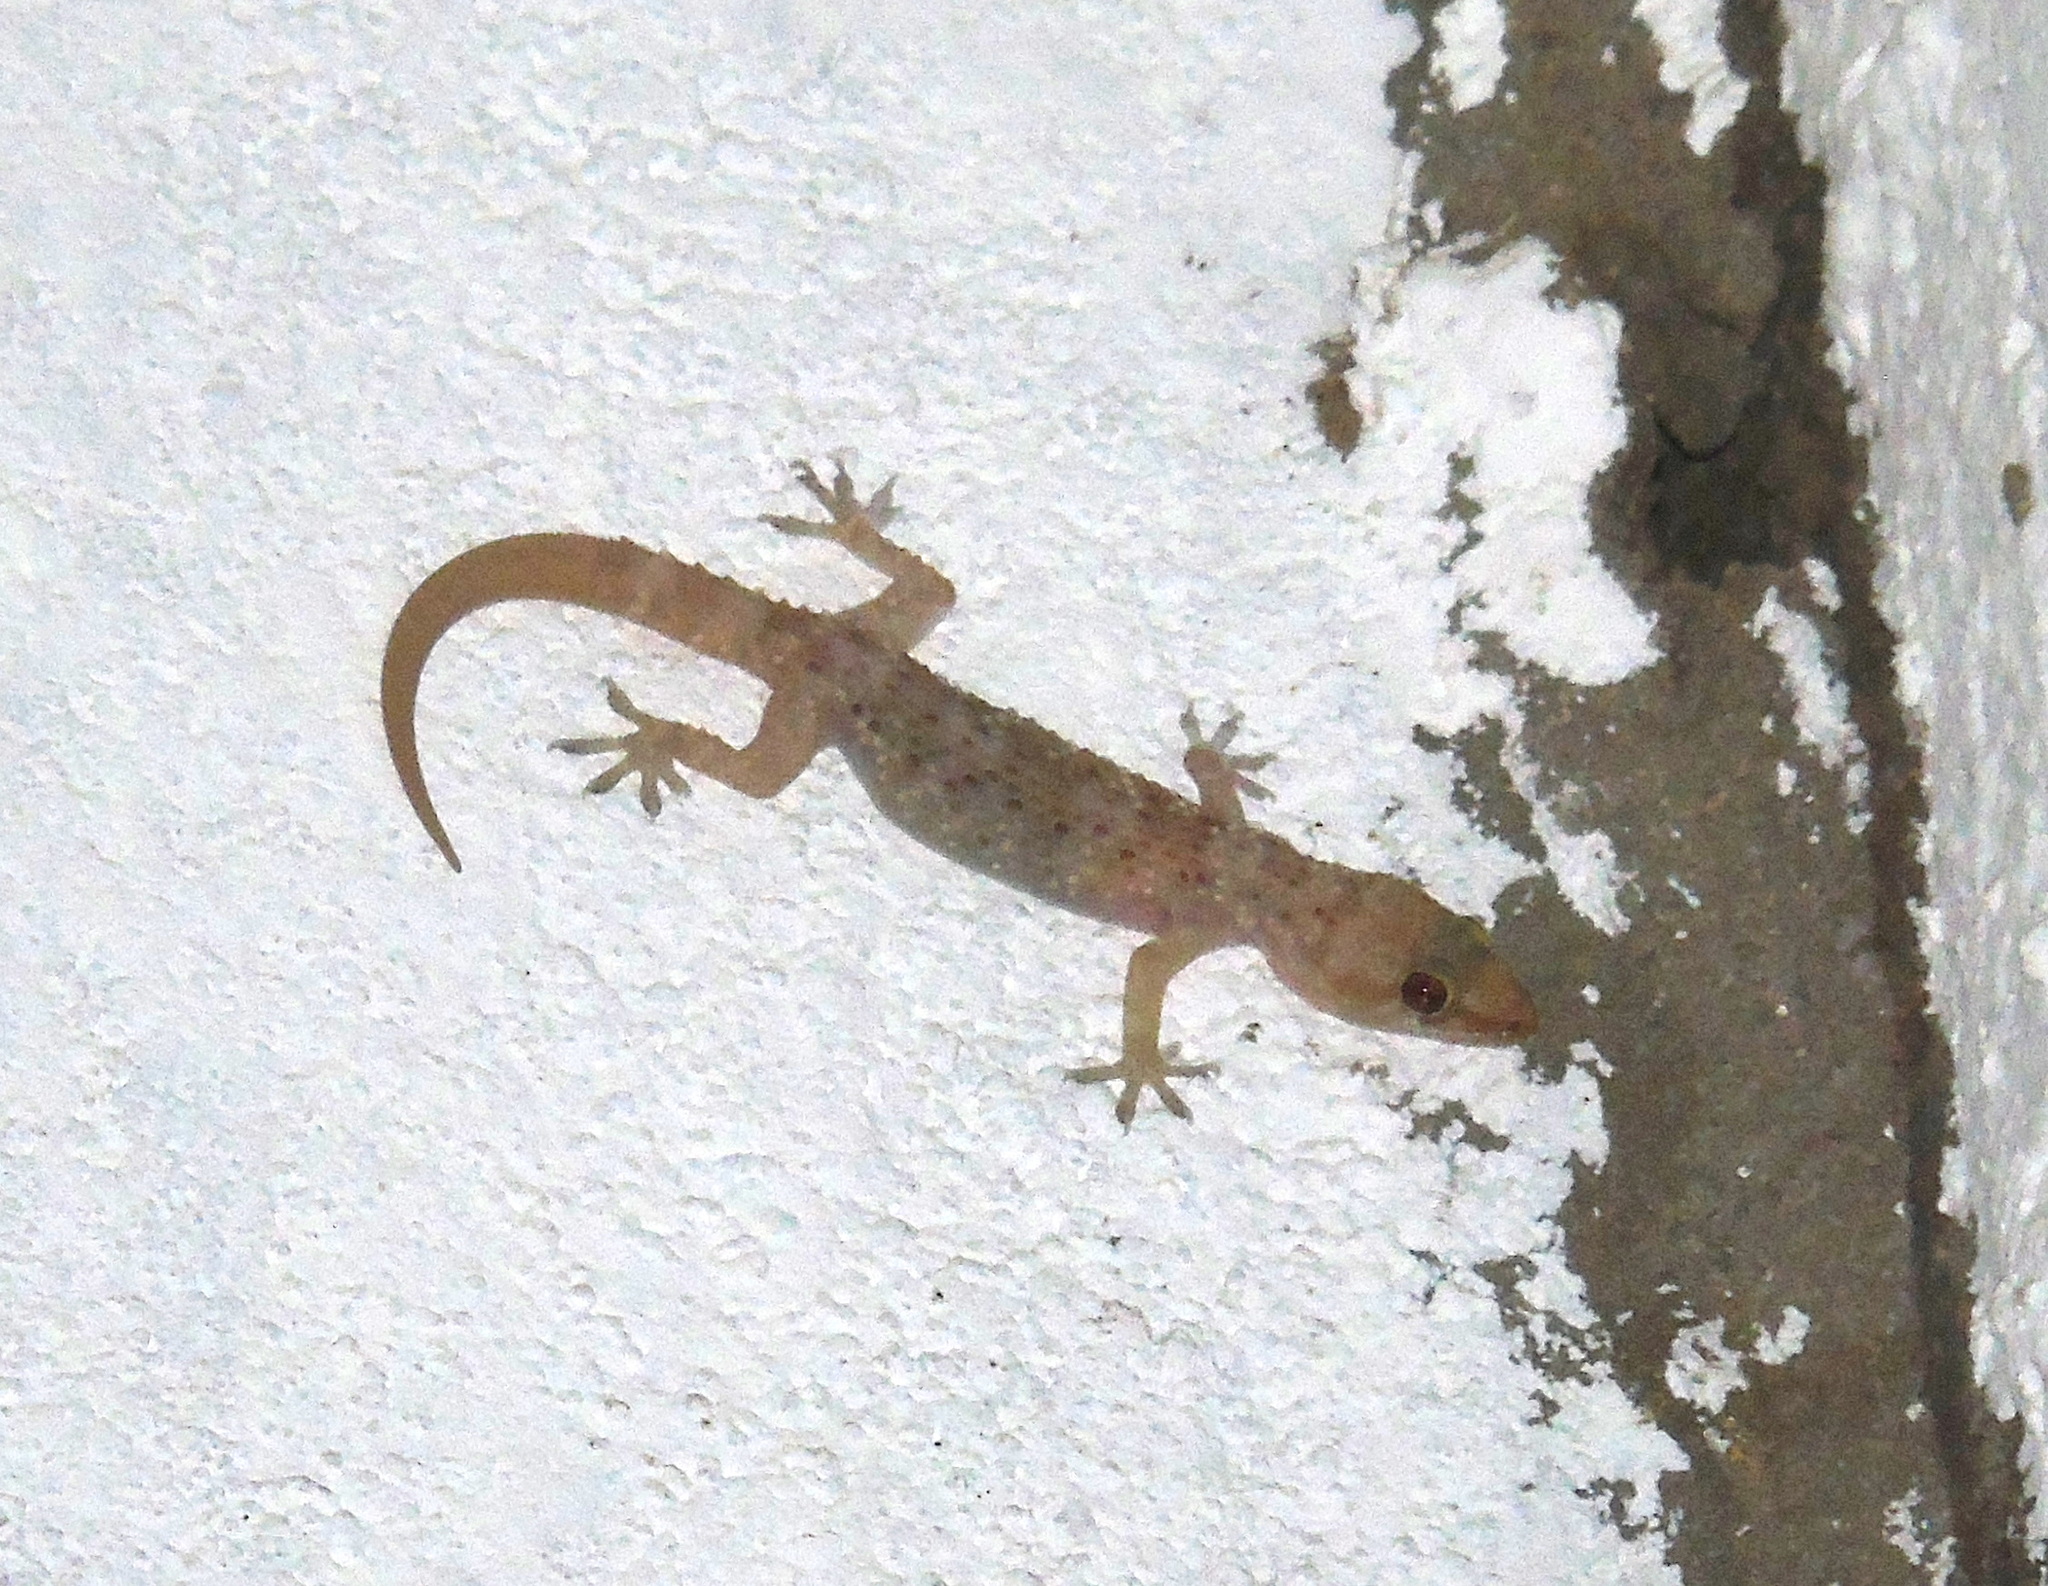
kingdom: Animalia
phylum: Chordata
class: Squamata
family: Gekkonidae
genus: Hemidactylus
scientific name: Hemidactylus turcicus
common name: Turkish gecko
